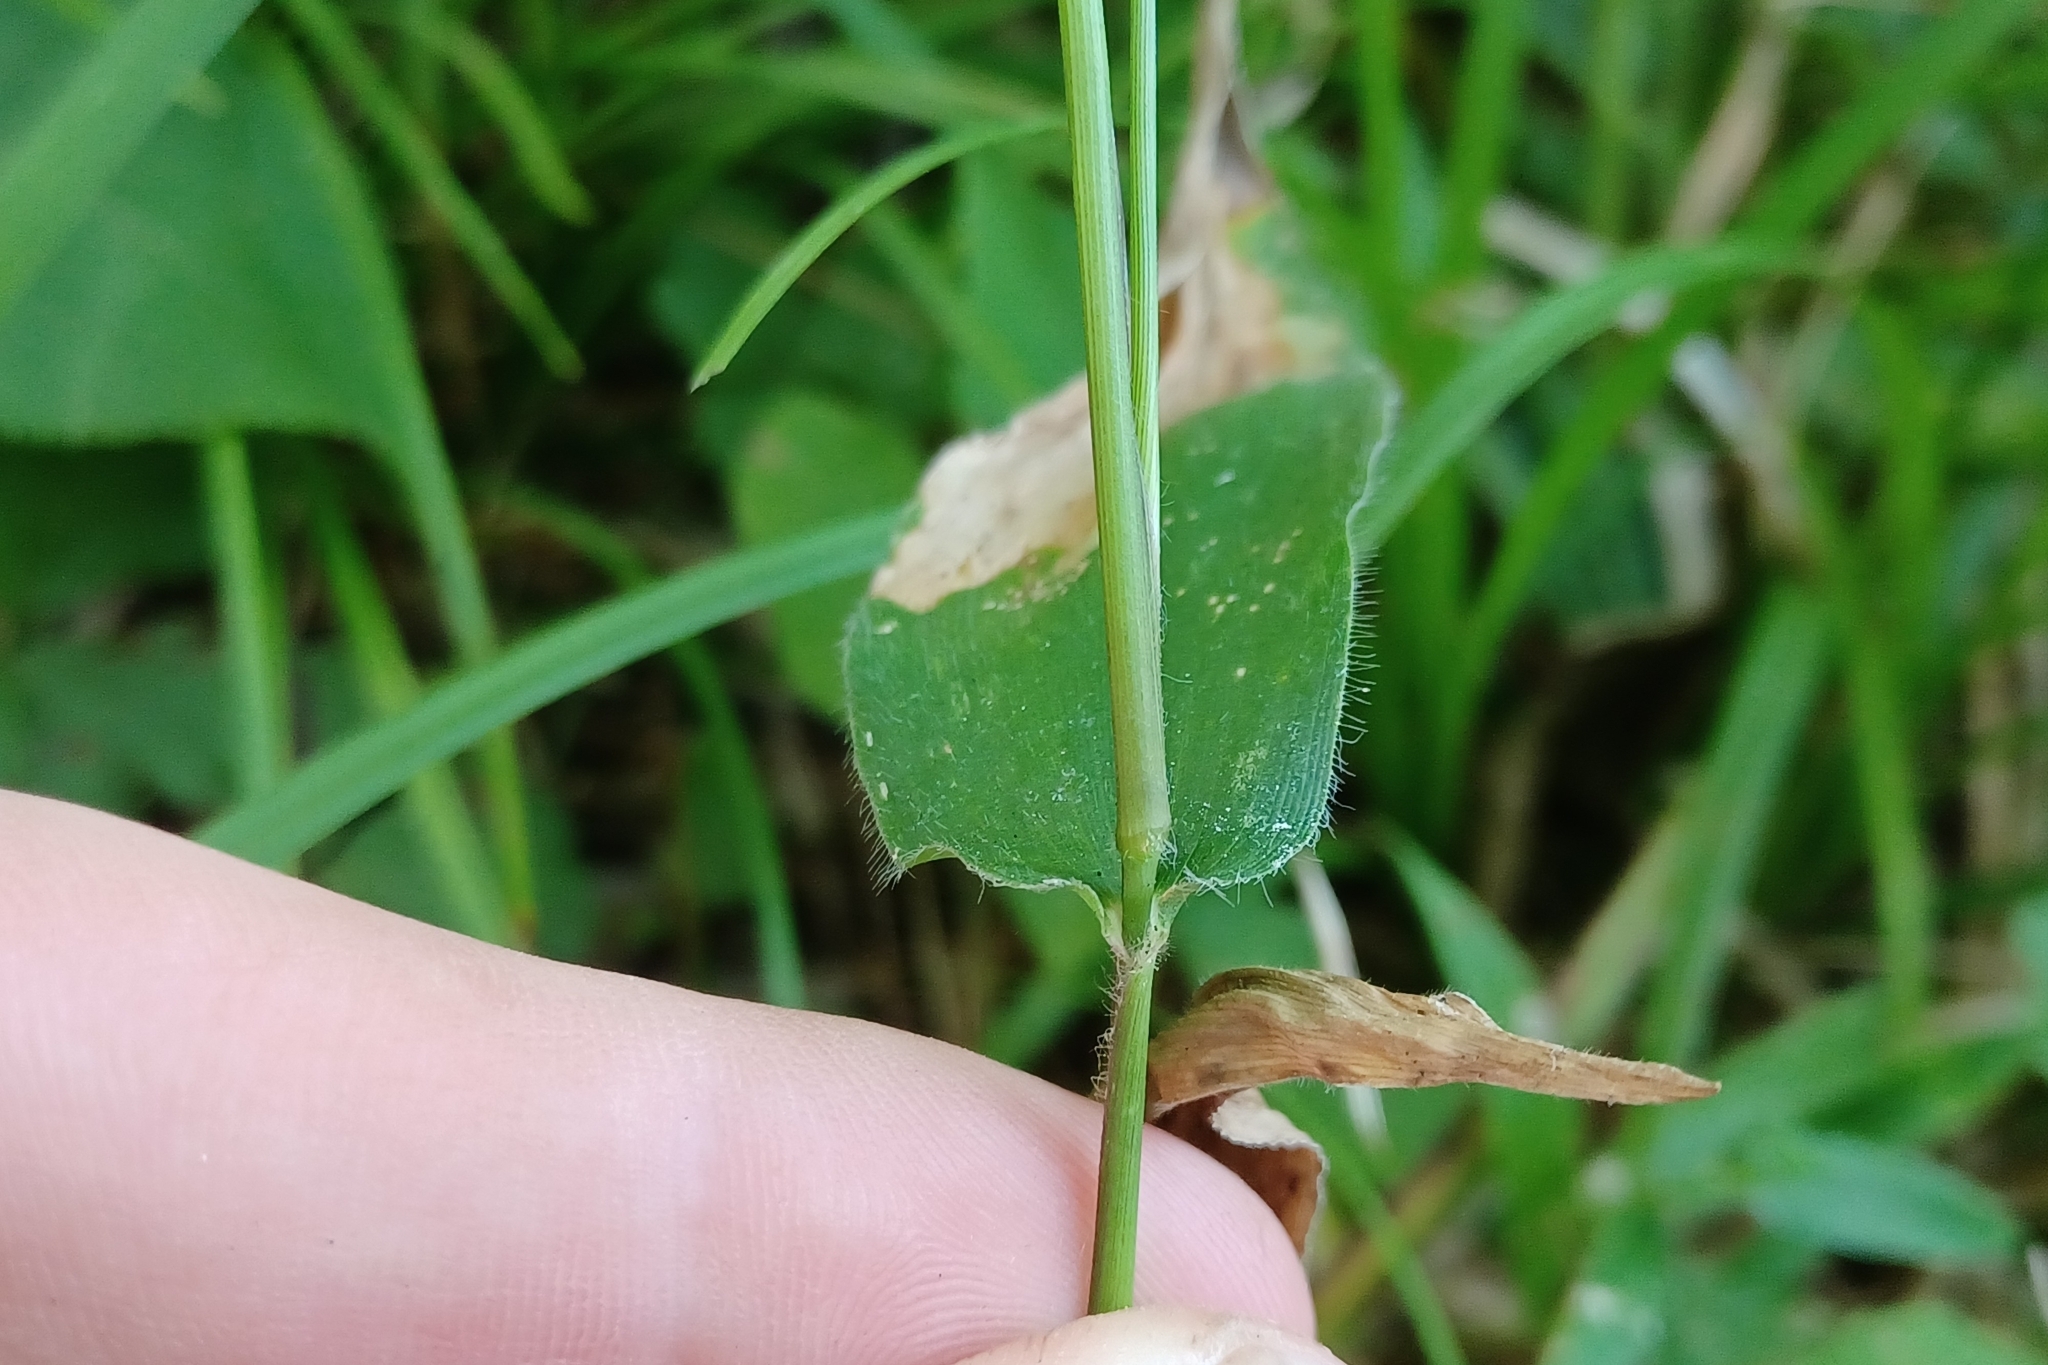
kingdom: Plantae
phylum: Tracheophyta
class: Liliopsida
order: Poales
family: Poaceae
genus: Dichanthelium
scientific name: Dichanthelium latifolium
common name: Broad-leaved panicgrass
